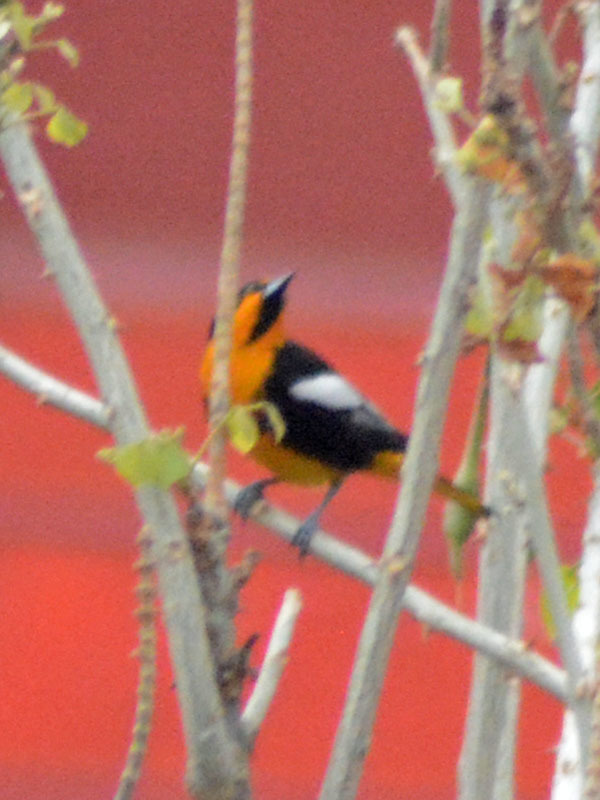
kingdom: Animalia
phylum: Chordata
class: Aves
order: Passeriformes
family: Icteridae
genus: Icterus
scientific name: Icterus abeillei
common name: Black-backed oriole
